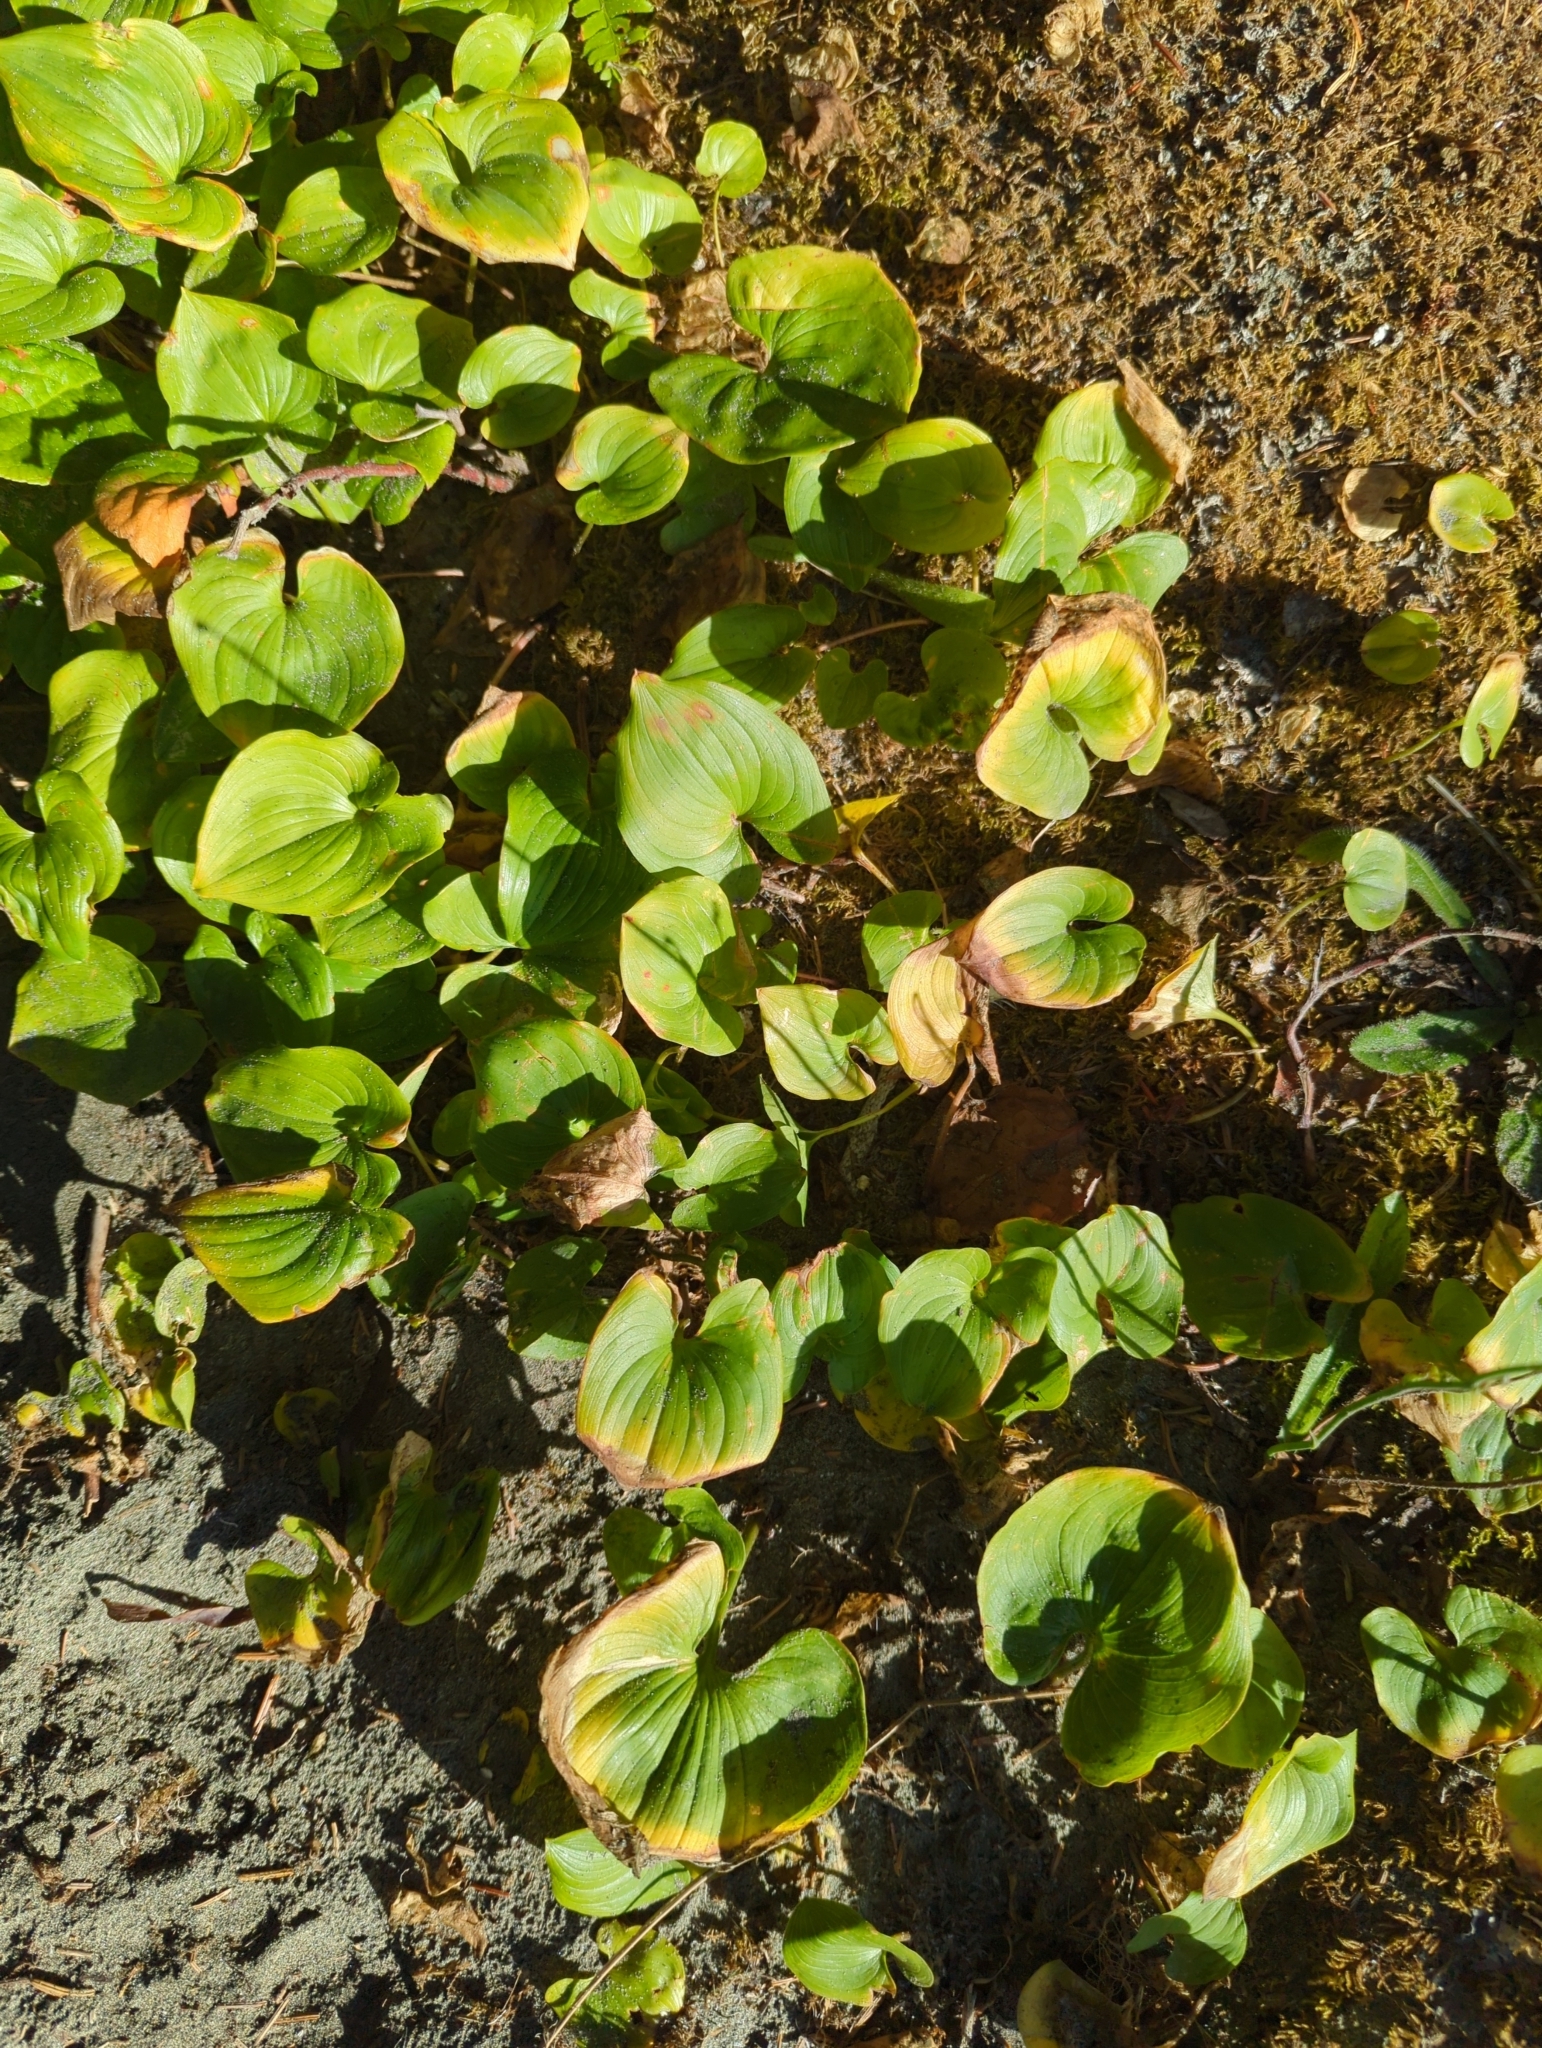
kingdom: Plantae
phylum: Tracheophyta
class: Liliopsida
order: Asparagales
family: Asparagaceae
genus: Maianthemum
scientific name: Maianthemum dilatatum
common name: False lily-of-the-valley
